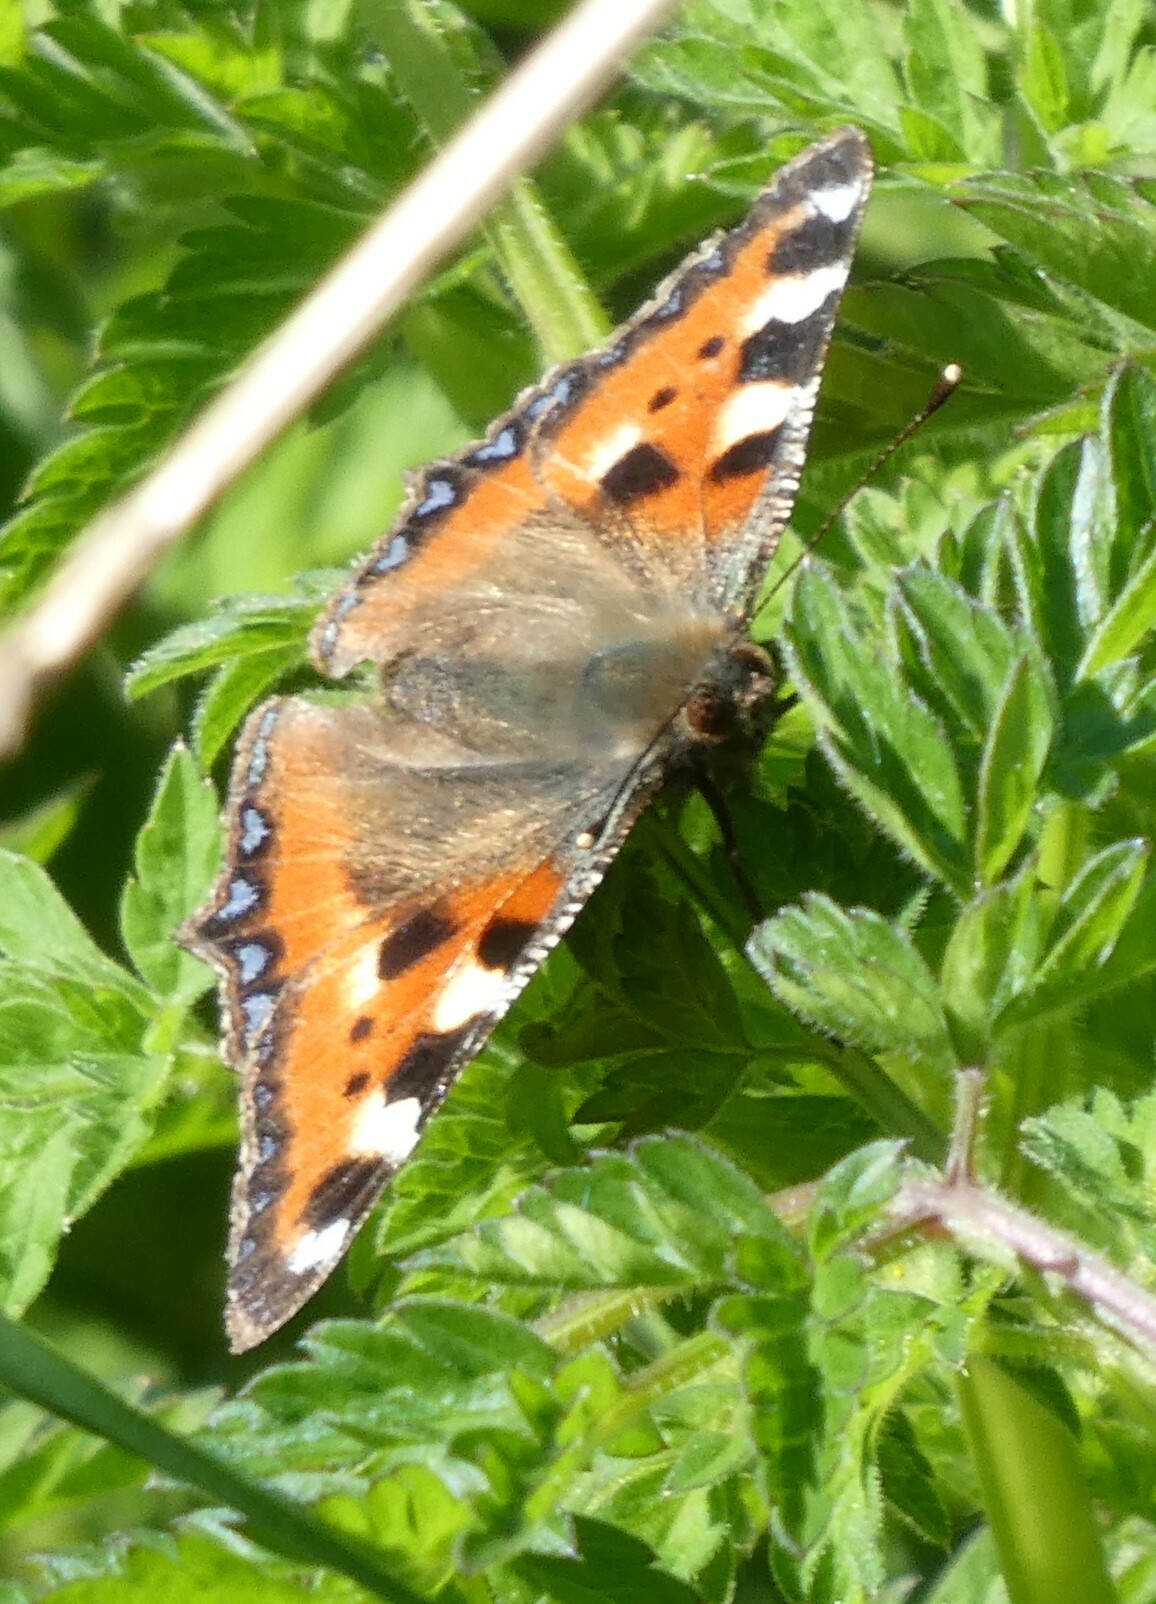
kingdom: Animalia
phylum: Arthropoda
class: Insecta
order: Lepidoptera
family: Nymphalidae
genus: Aglais
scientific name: Aglais urticae
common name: Small tortoiseshell
